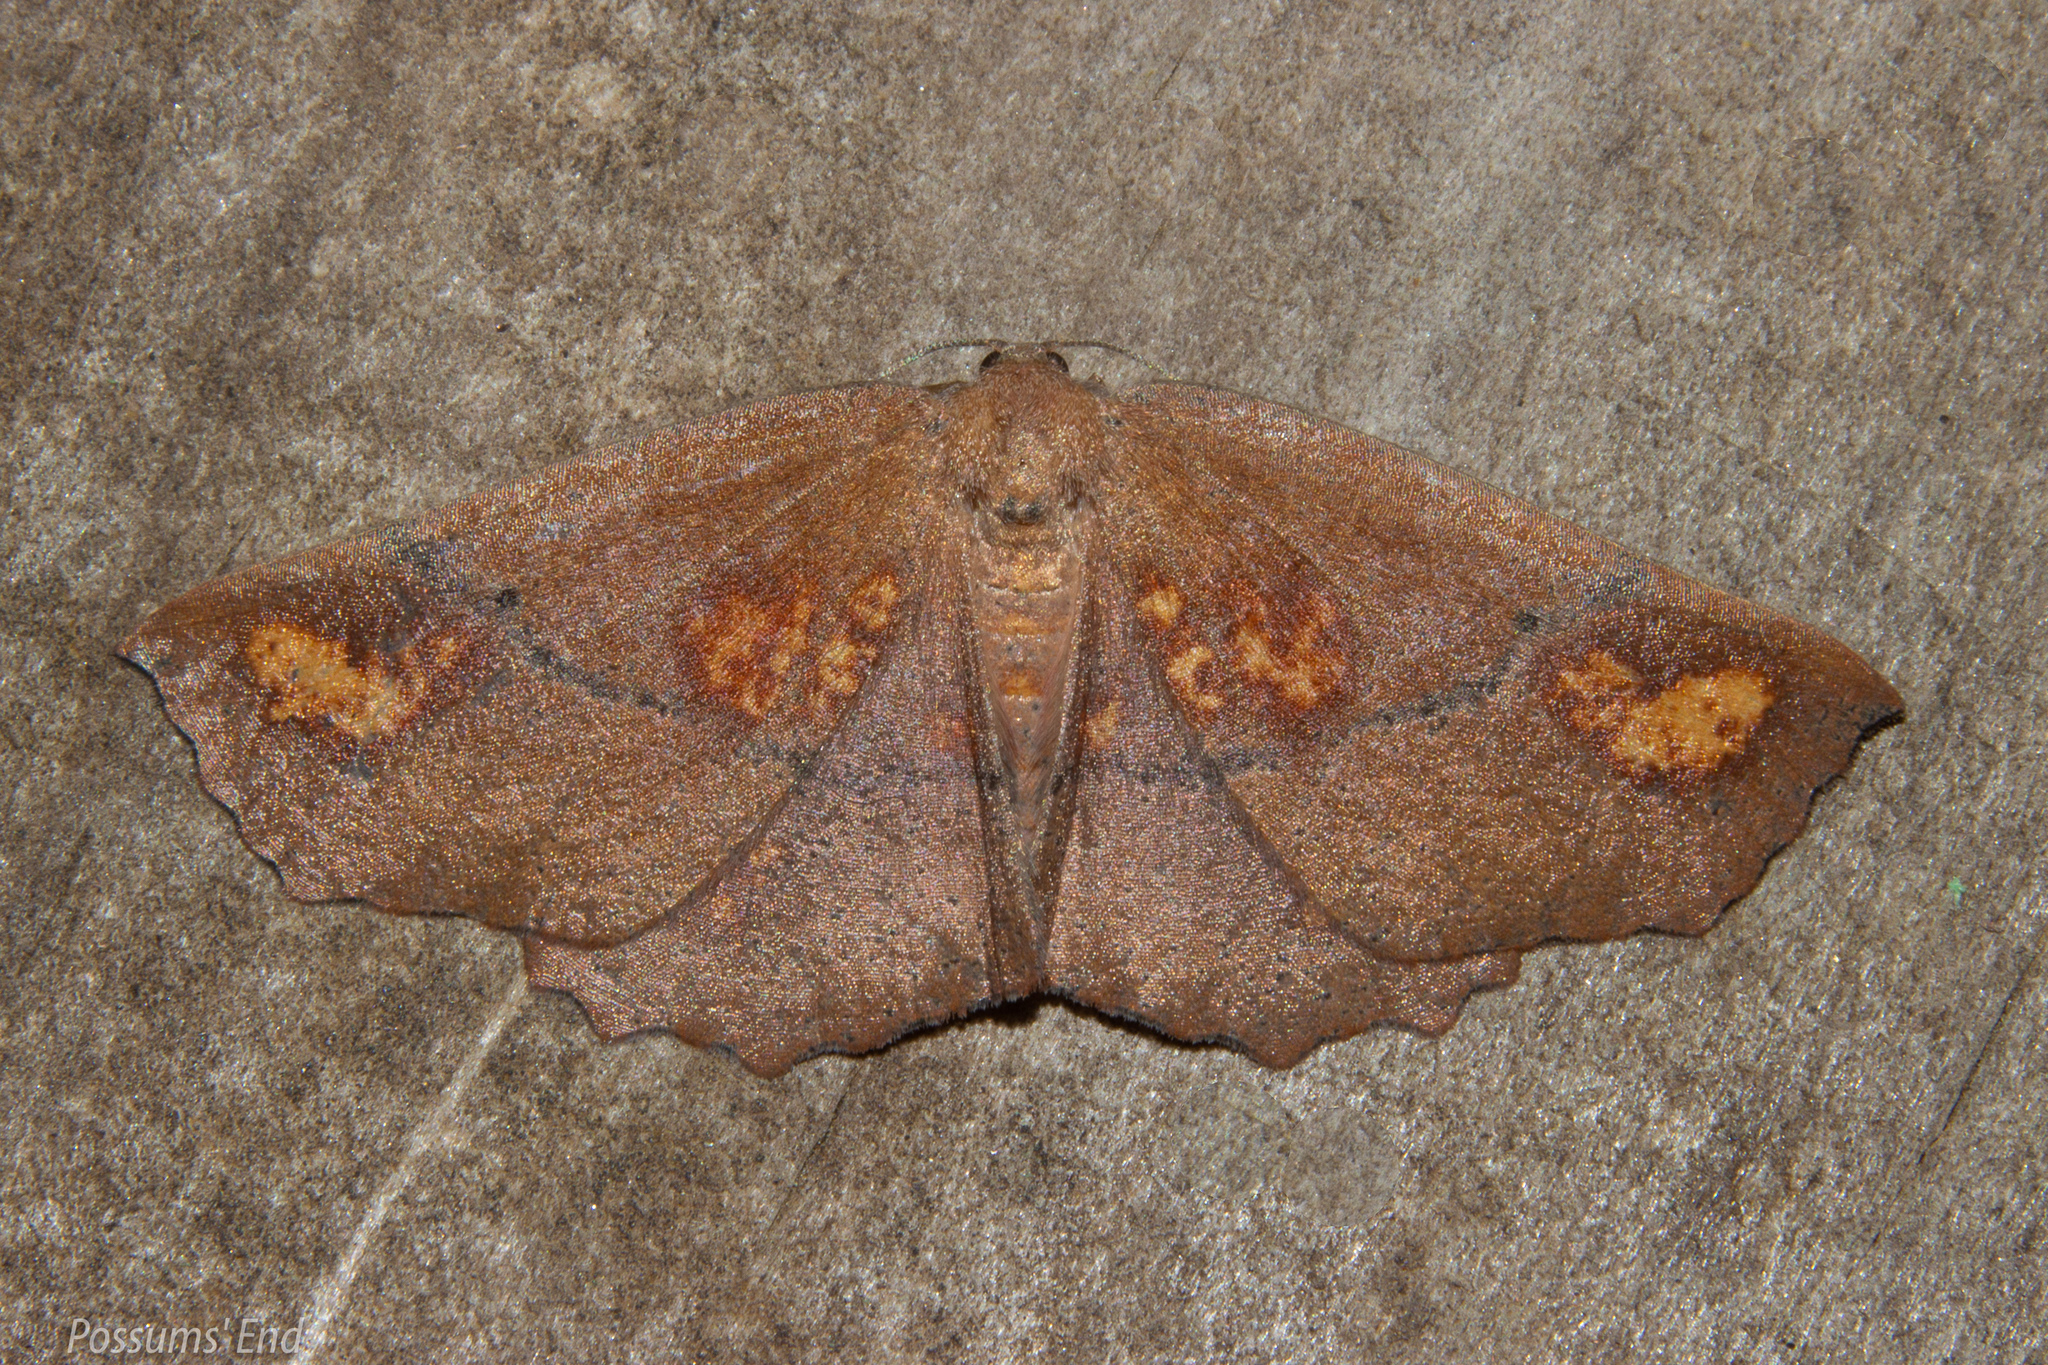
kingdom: Animalia
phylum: Arthropoda
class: Insecta
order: Lepidoptera
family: Geometridae
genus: Xyridacma
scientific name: Xyridacma ustaria
